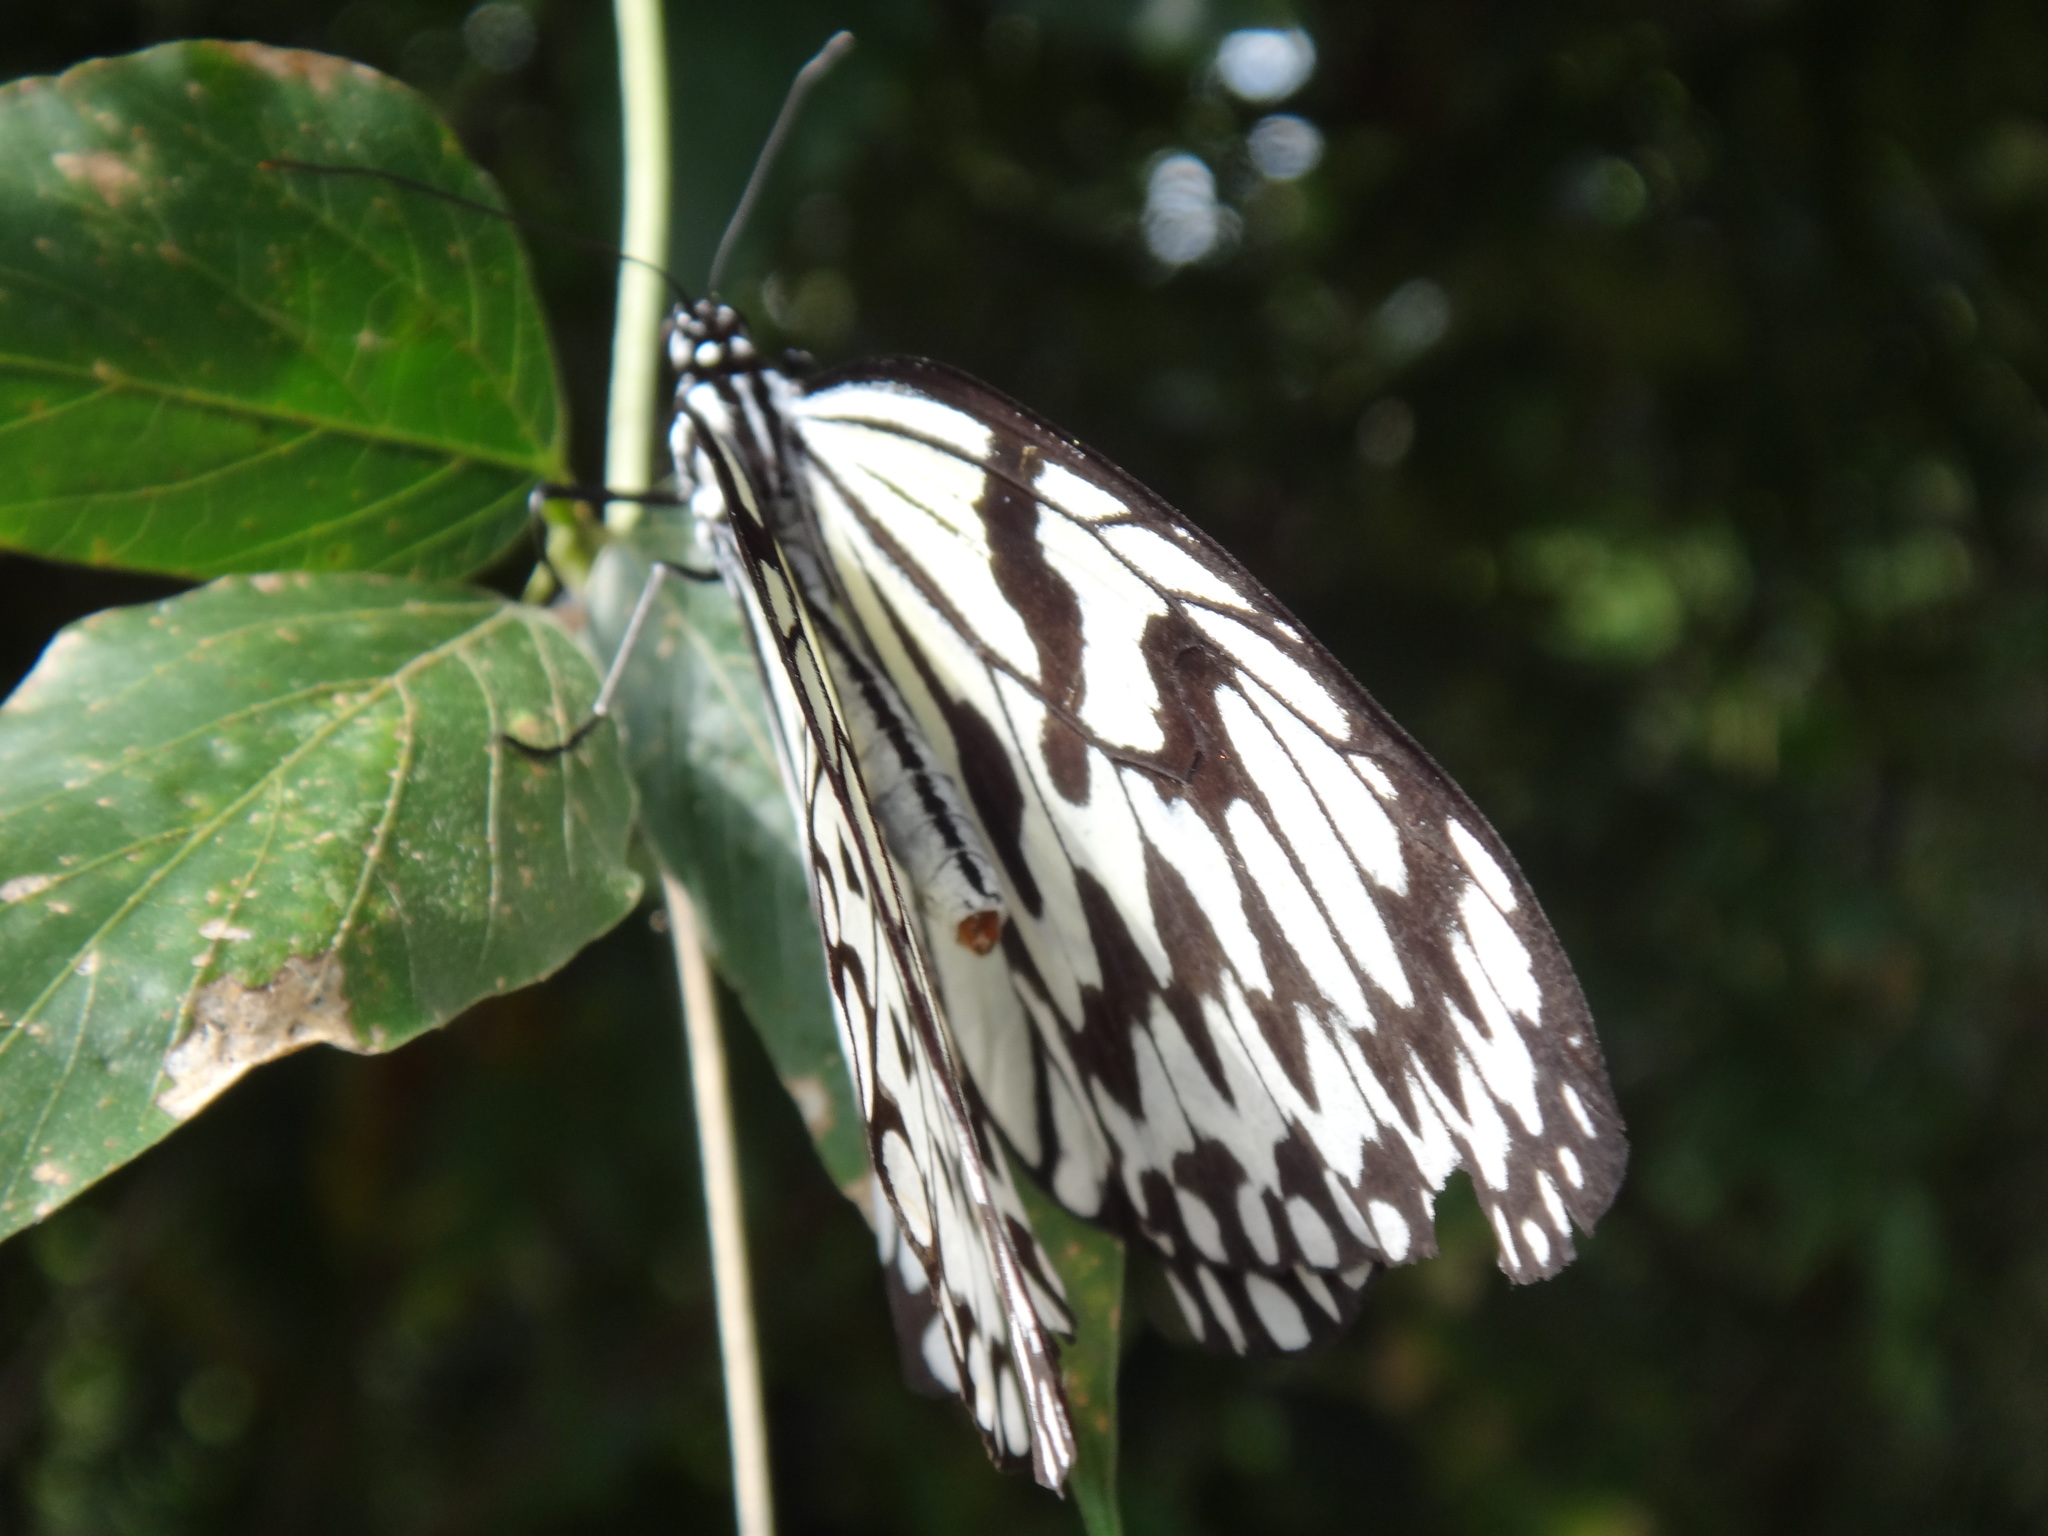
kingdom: Animalia
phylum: Arthropoda
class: Insecta
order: Lepidoptera
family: Nymphalidae
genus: Idea
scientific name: Idea leuconoe
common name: Rice paper butterfly
